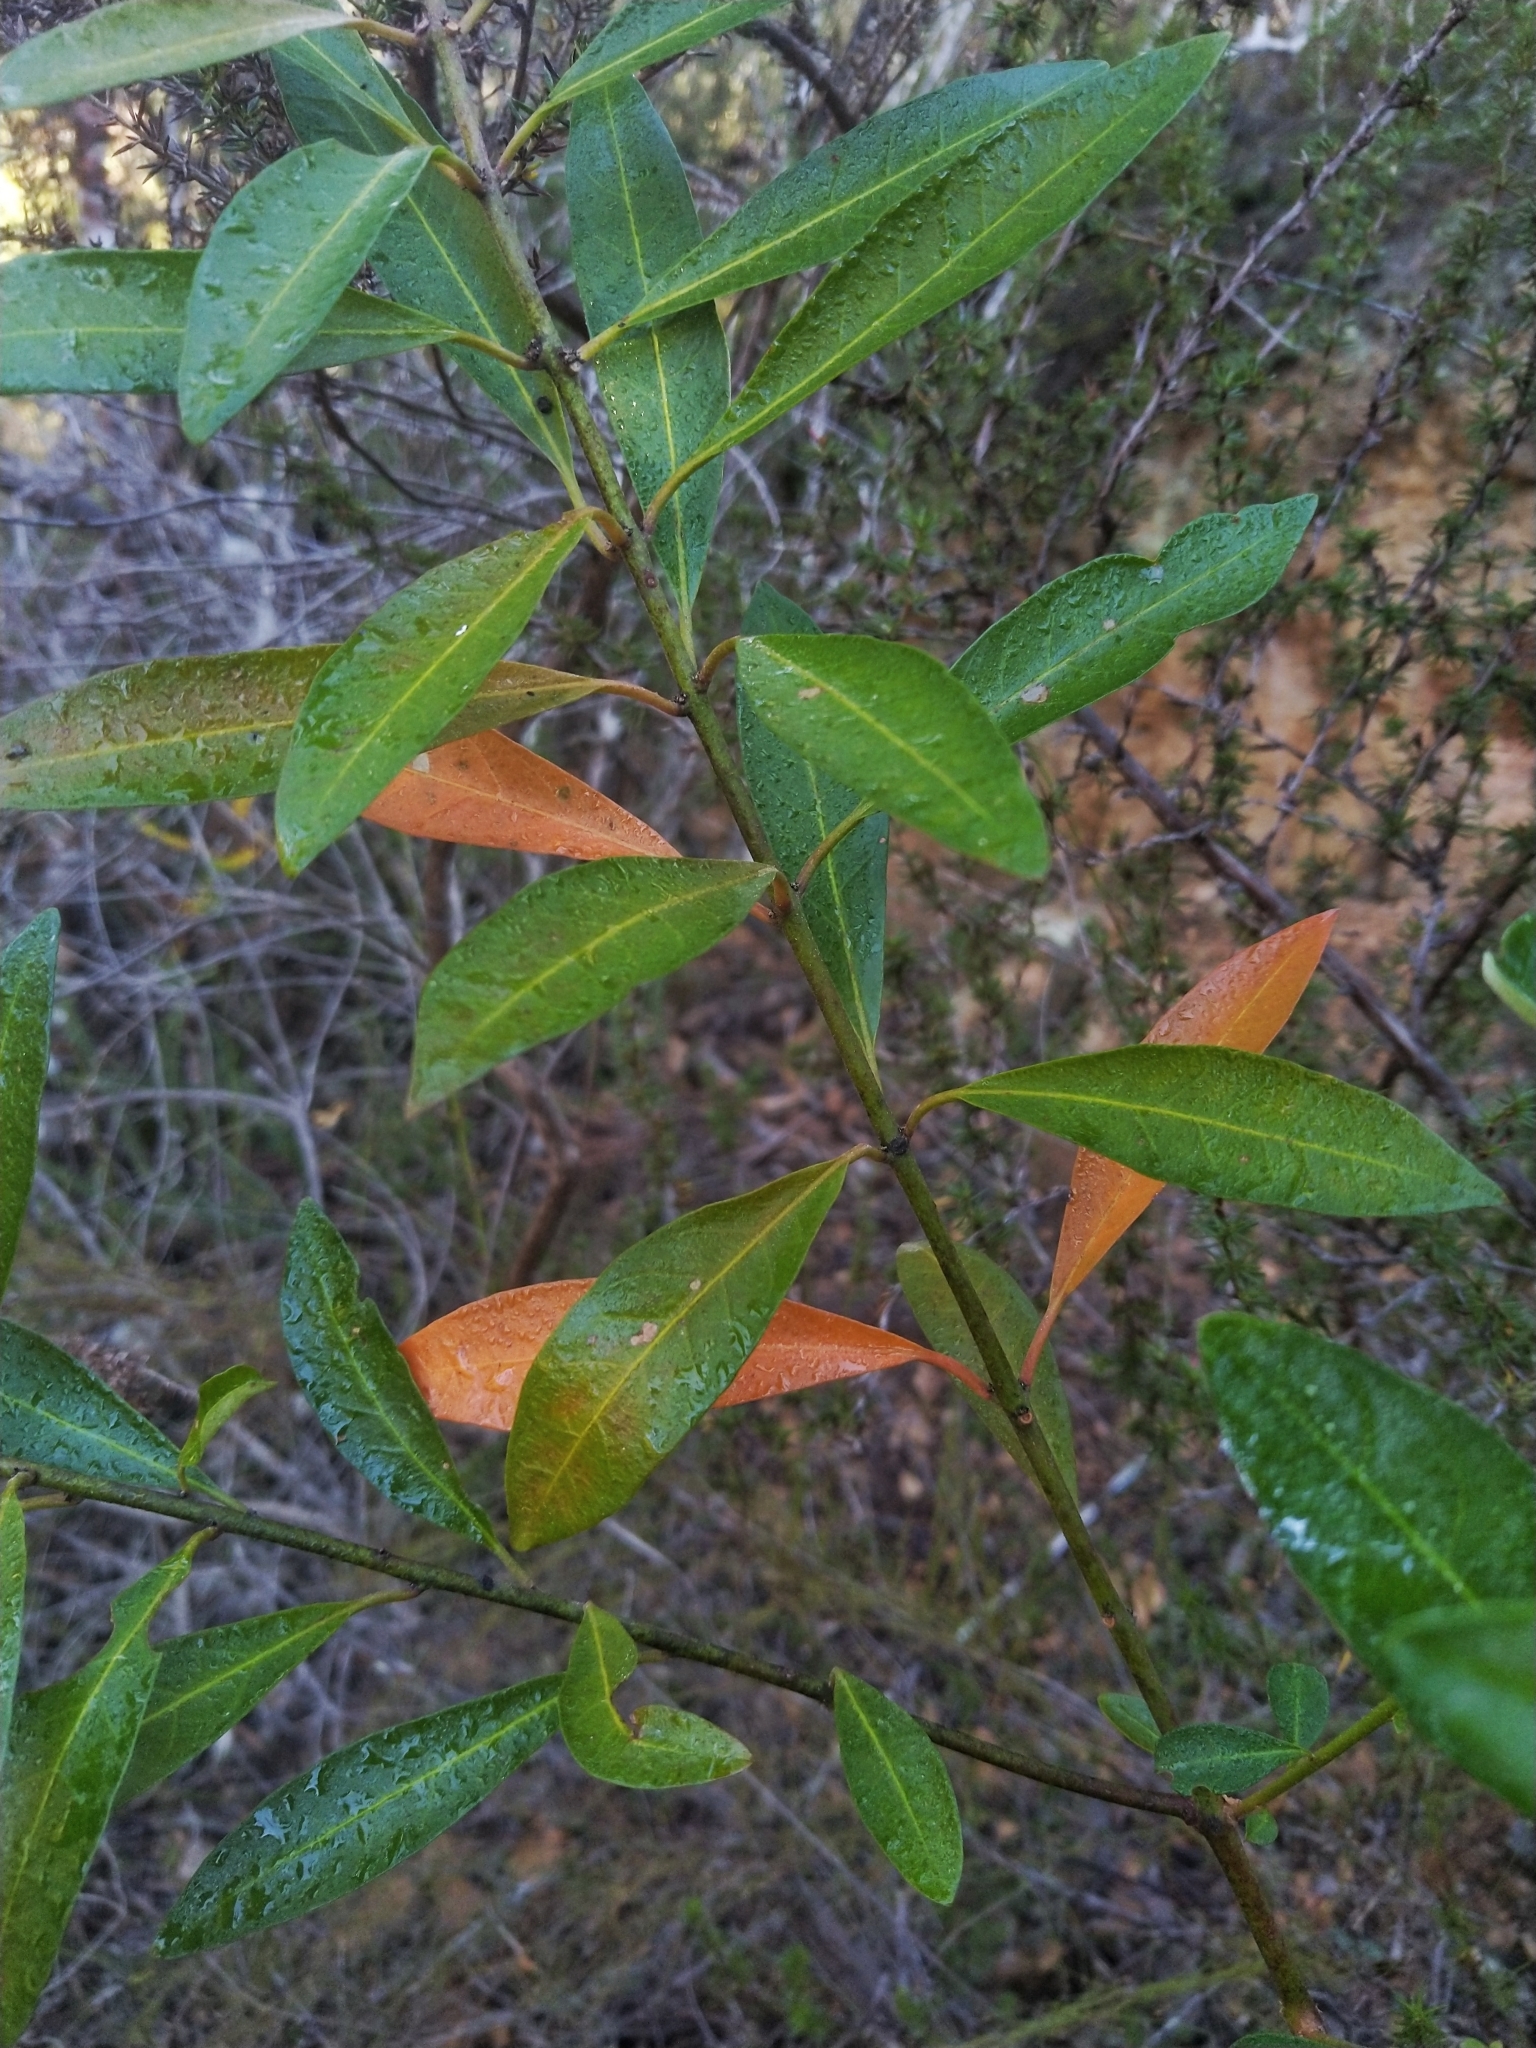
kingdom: Plantae
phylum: Tracheophyta
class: Magnoliopsida
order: Malpighiales
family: Peraceae
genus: Clutia
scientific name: Clutia affinis
